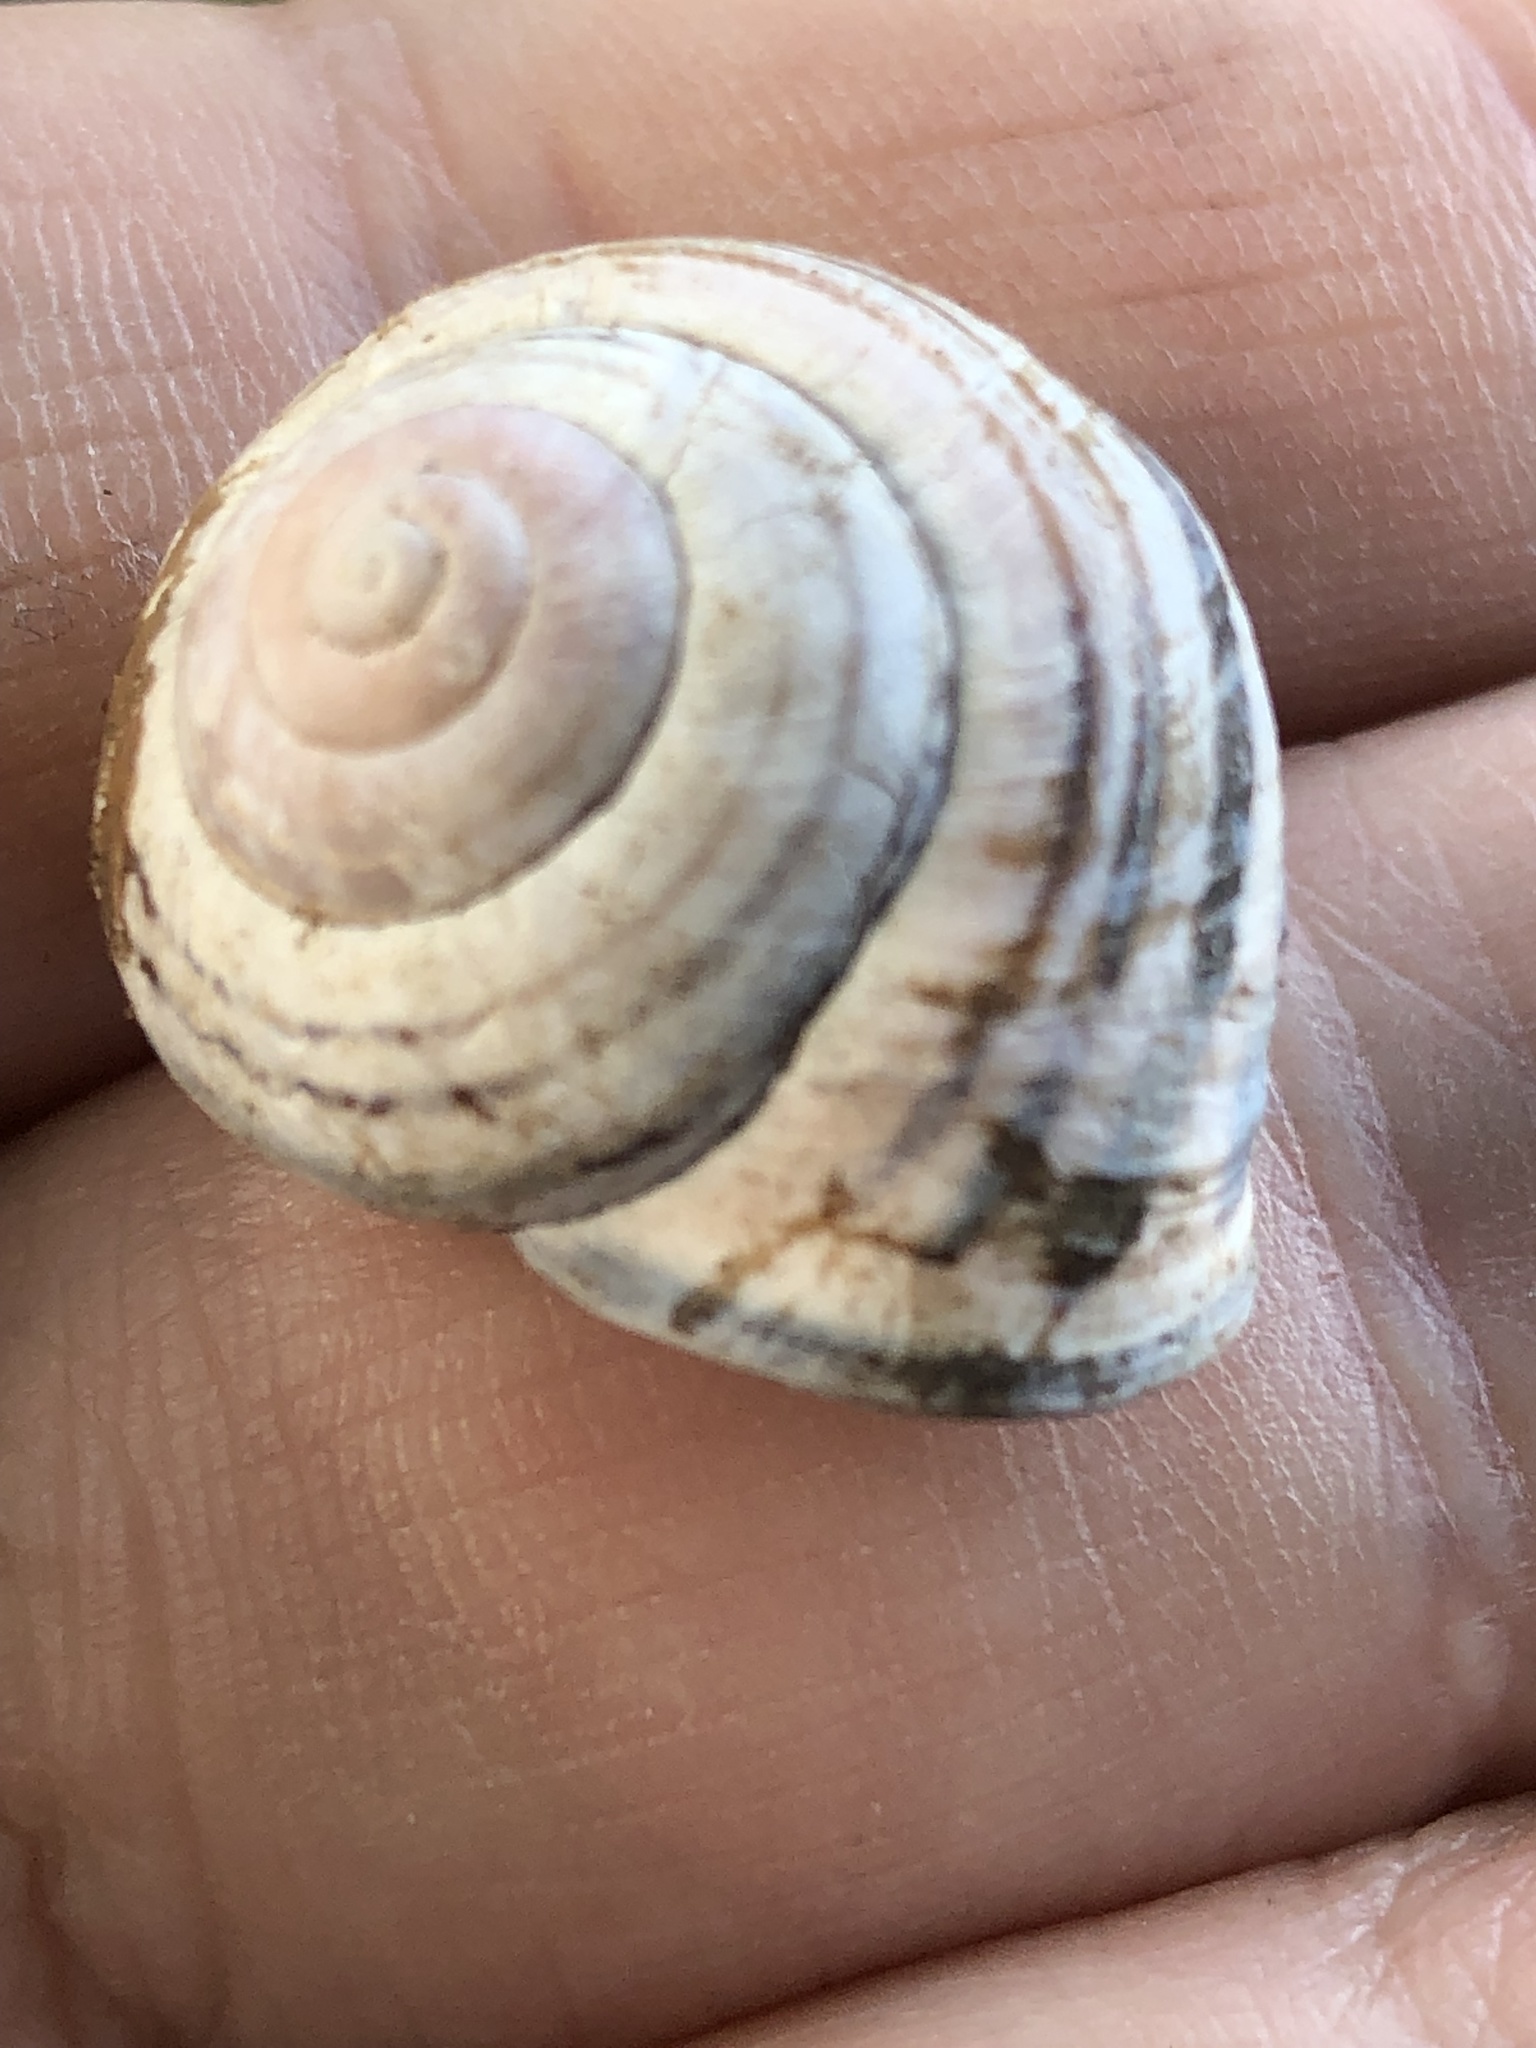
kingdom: Animalia
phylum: Mollusca
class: Gastropoda
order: Stylommatophora
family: Helicidae
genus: Cepaea
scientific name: Cepaea nemoralis
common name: Grovesnail
